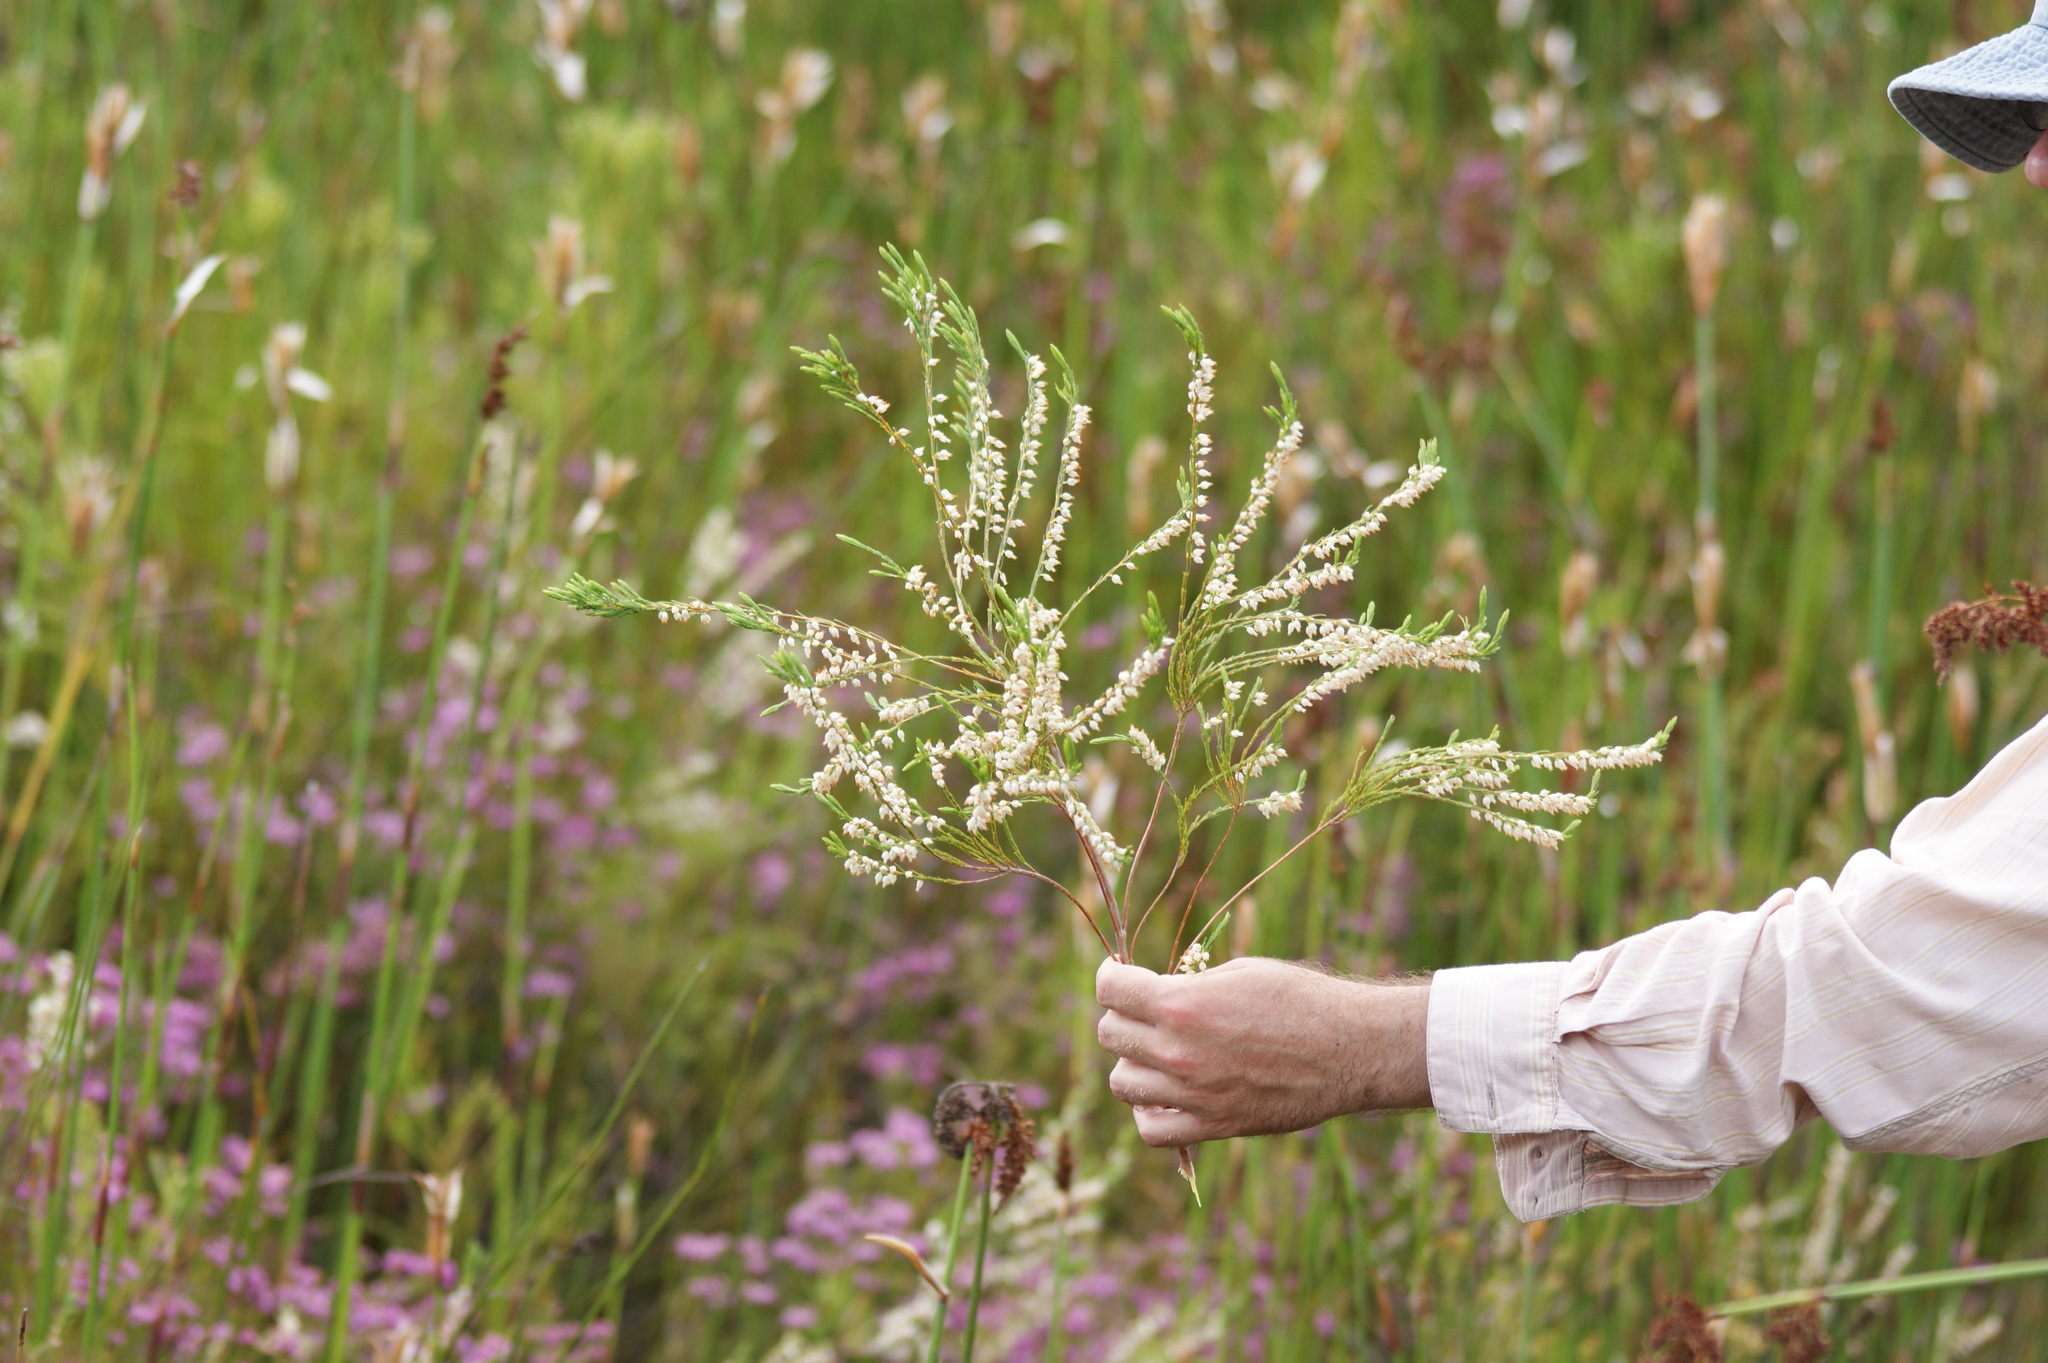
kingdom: Plantae
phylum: Tracheophyta
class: Magnoliopsida
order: Ericales
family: Ericaceae
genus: Erica
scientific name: Erica albens
